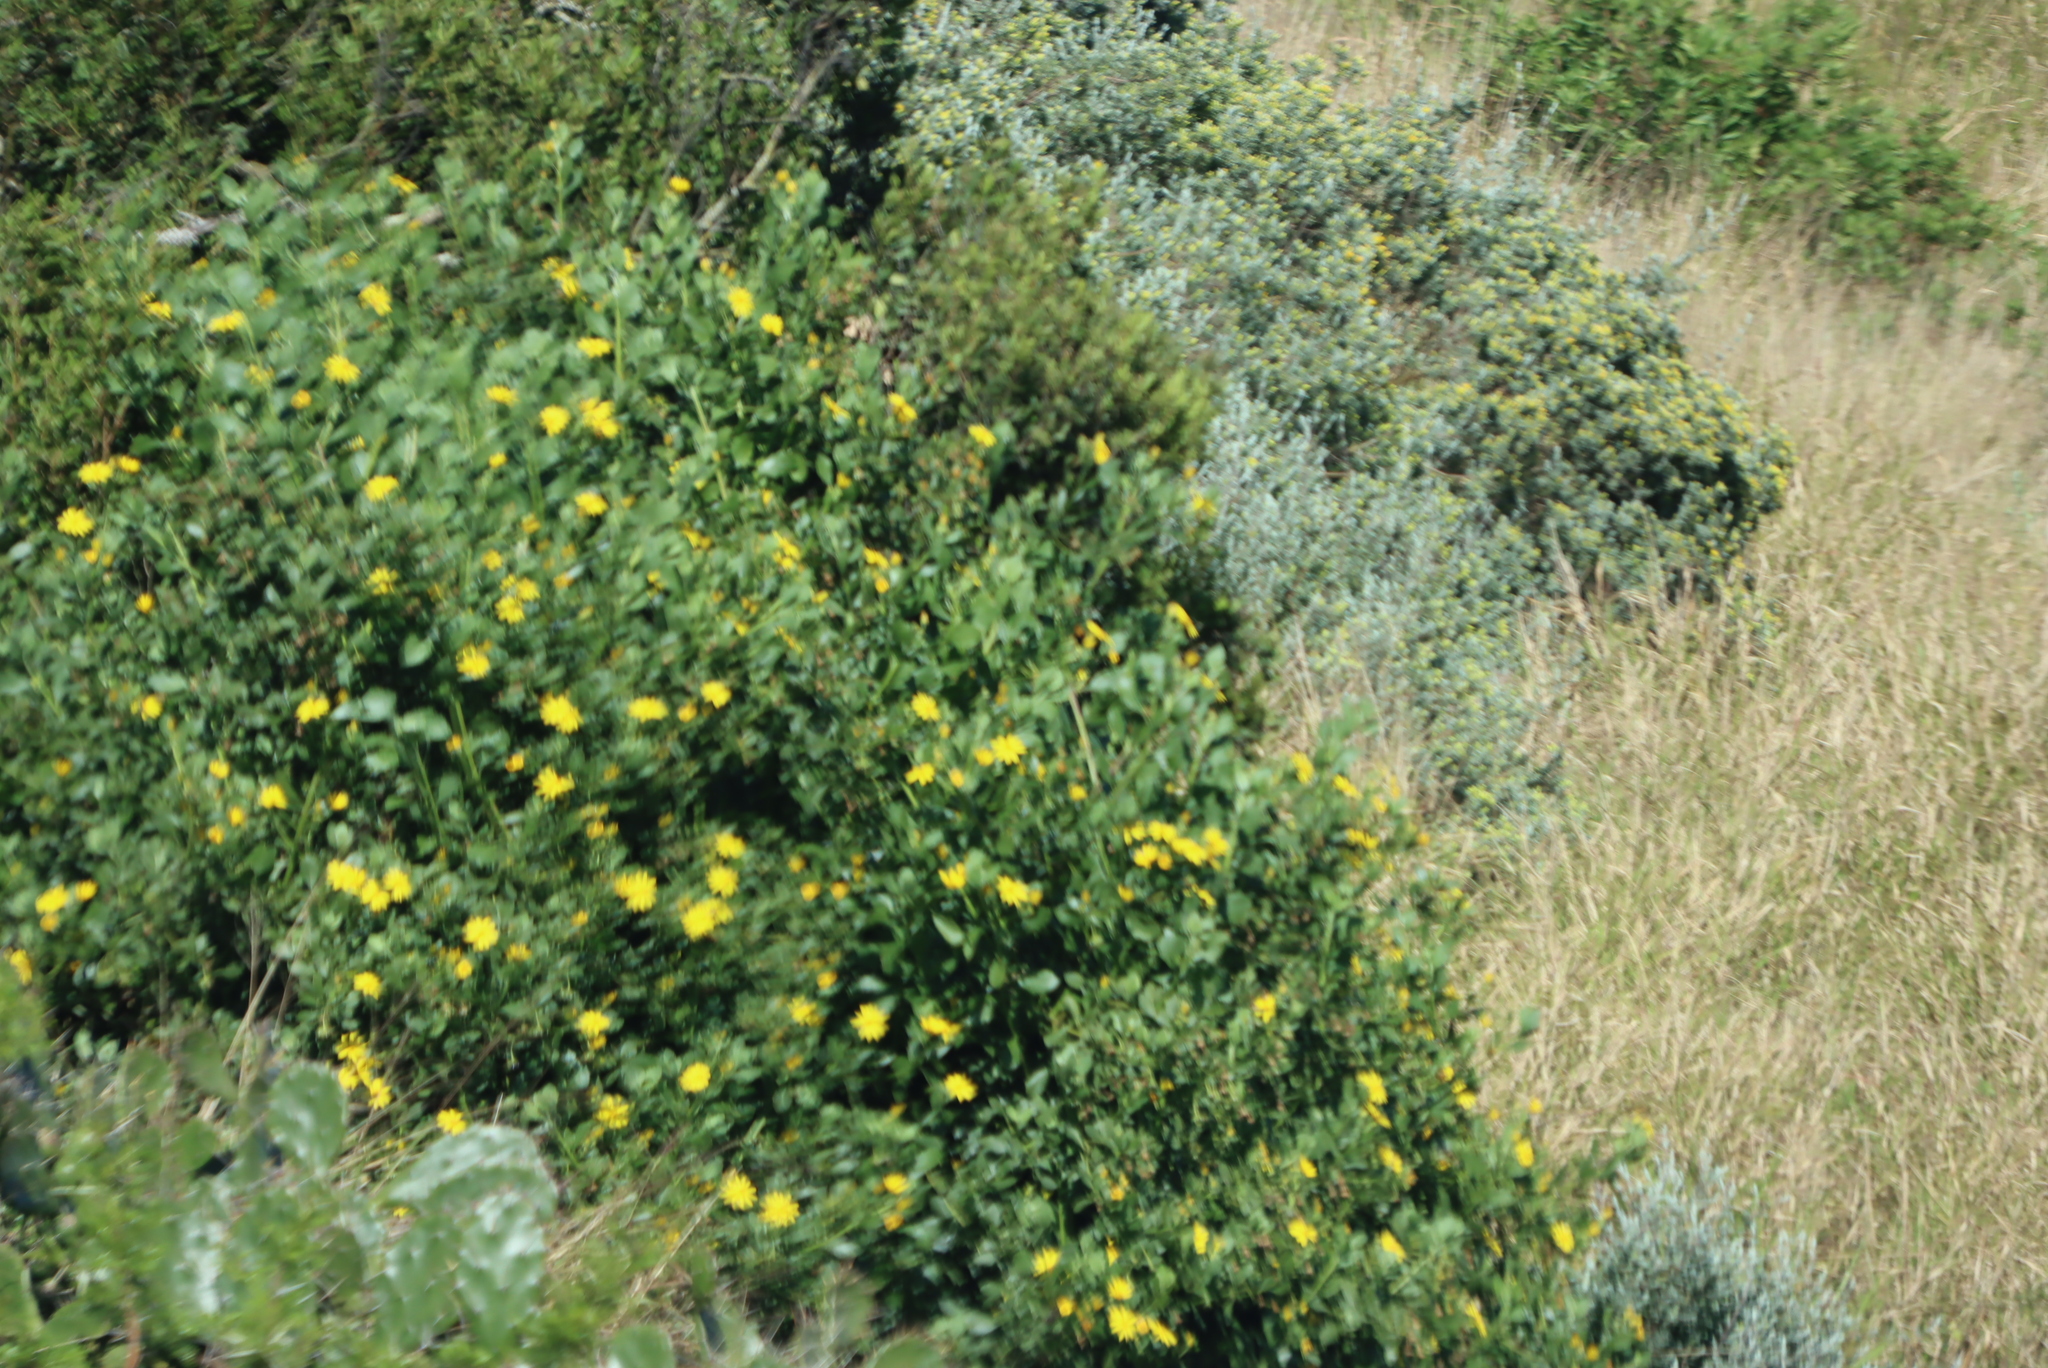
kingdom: Plantae
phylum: Tracheophyta
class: Magnoliopsida
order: Asterales
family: Asteraceae
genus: Osteospermum
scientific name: Osteospermum moniliferum
